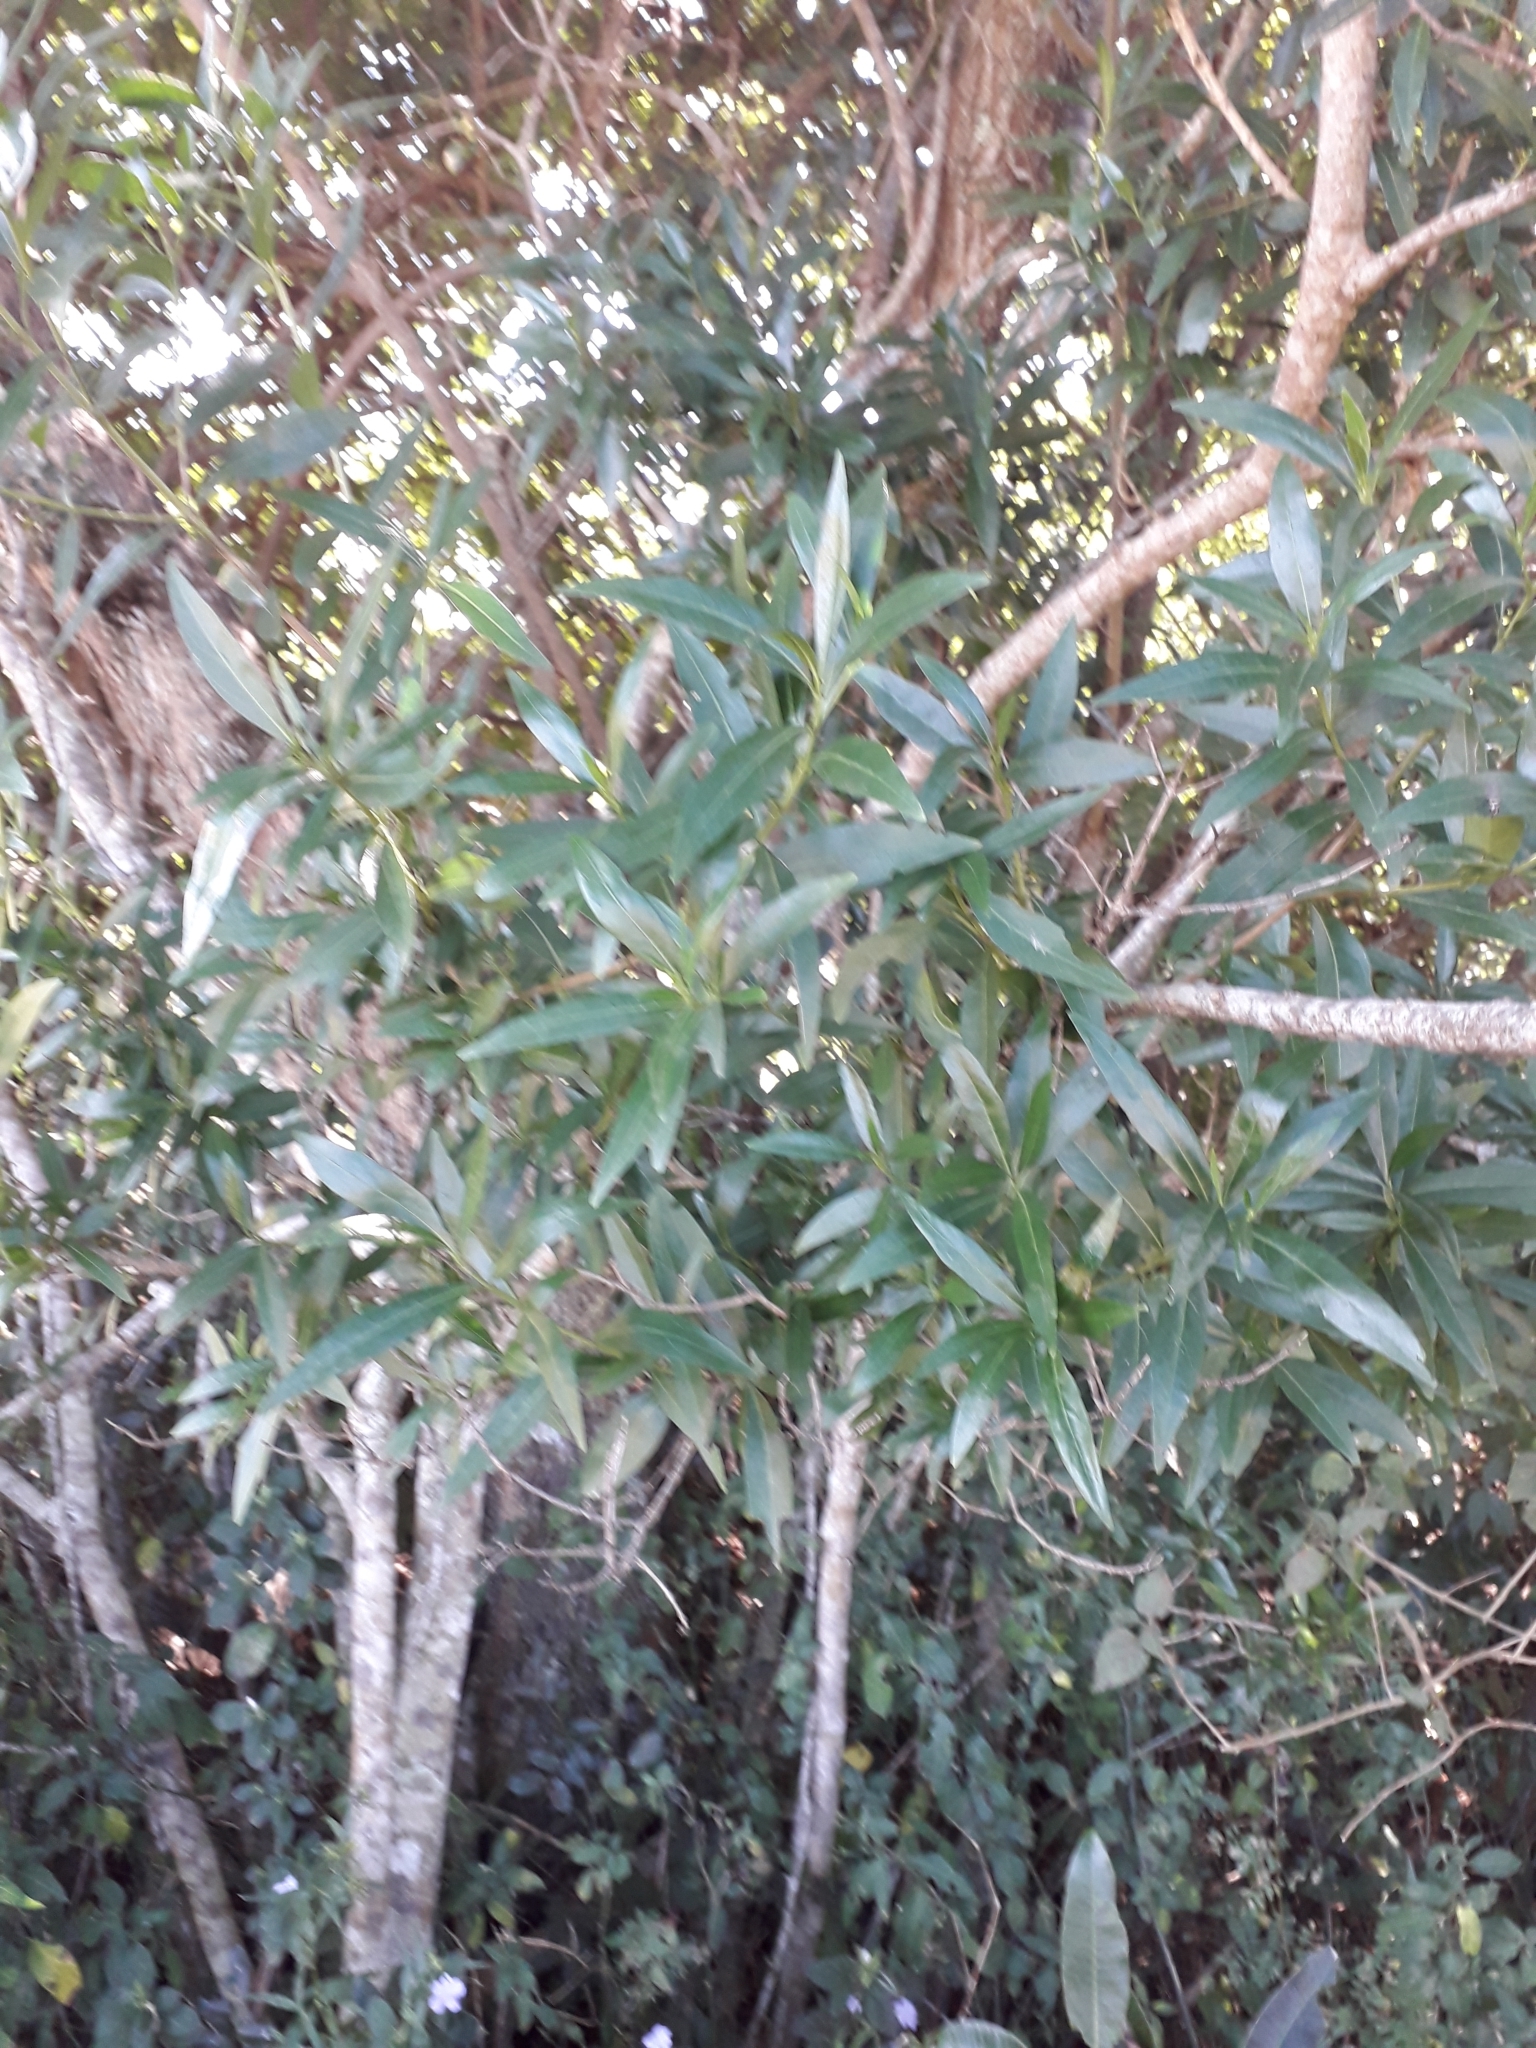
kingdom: Plantae
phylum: Tracheophyta
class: Magnoliopsida
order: Gentianales
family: Rubiaceae
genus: Pavetta
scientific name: Pavetta lanceolata
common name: Weeping brides-bush
